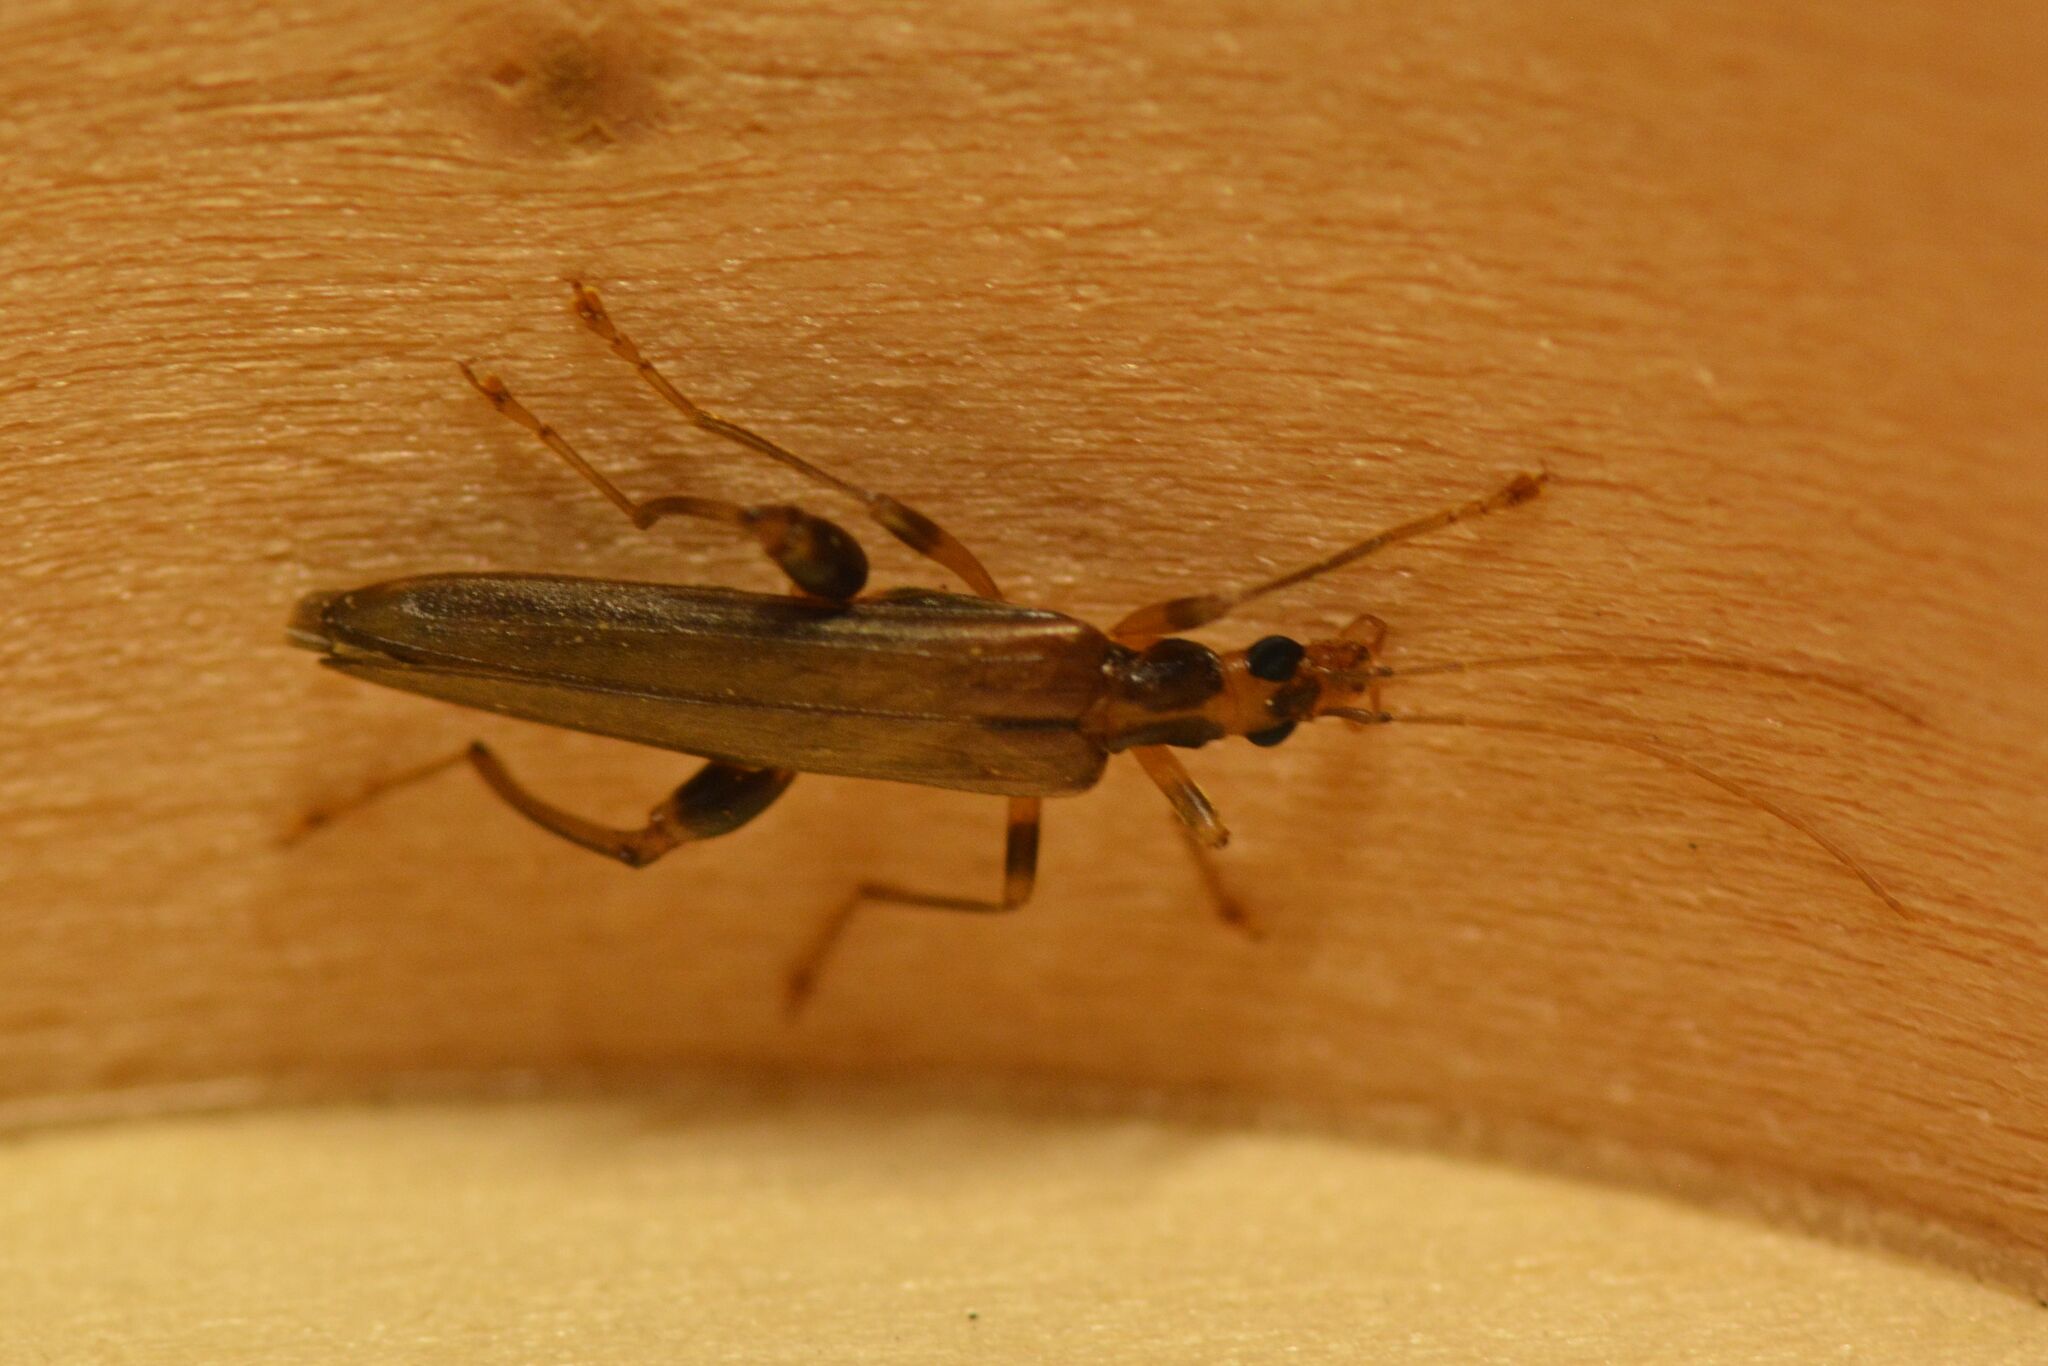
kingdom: Animalia
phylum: Arthropoda
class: Insecta
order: Coleoptera
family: Oedemeridae
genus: Oedemera
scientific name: Oedemera femoralis
